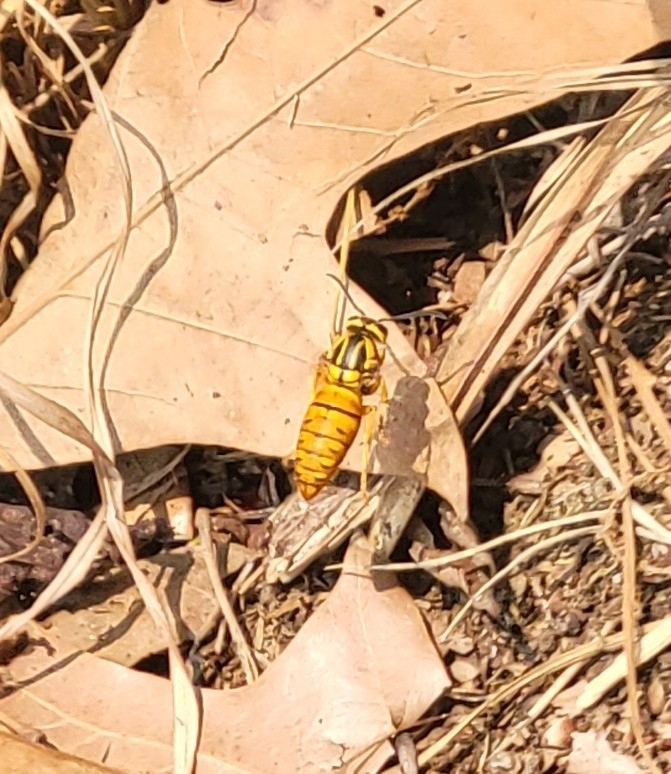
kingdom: Animalia
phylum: Arthropoda
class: Insecta
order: Hymenoptera
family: Vespidae
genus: Vespula
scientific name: Vespula squamosa
